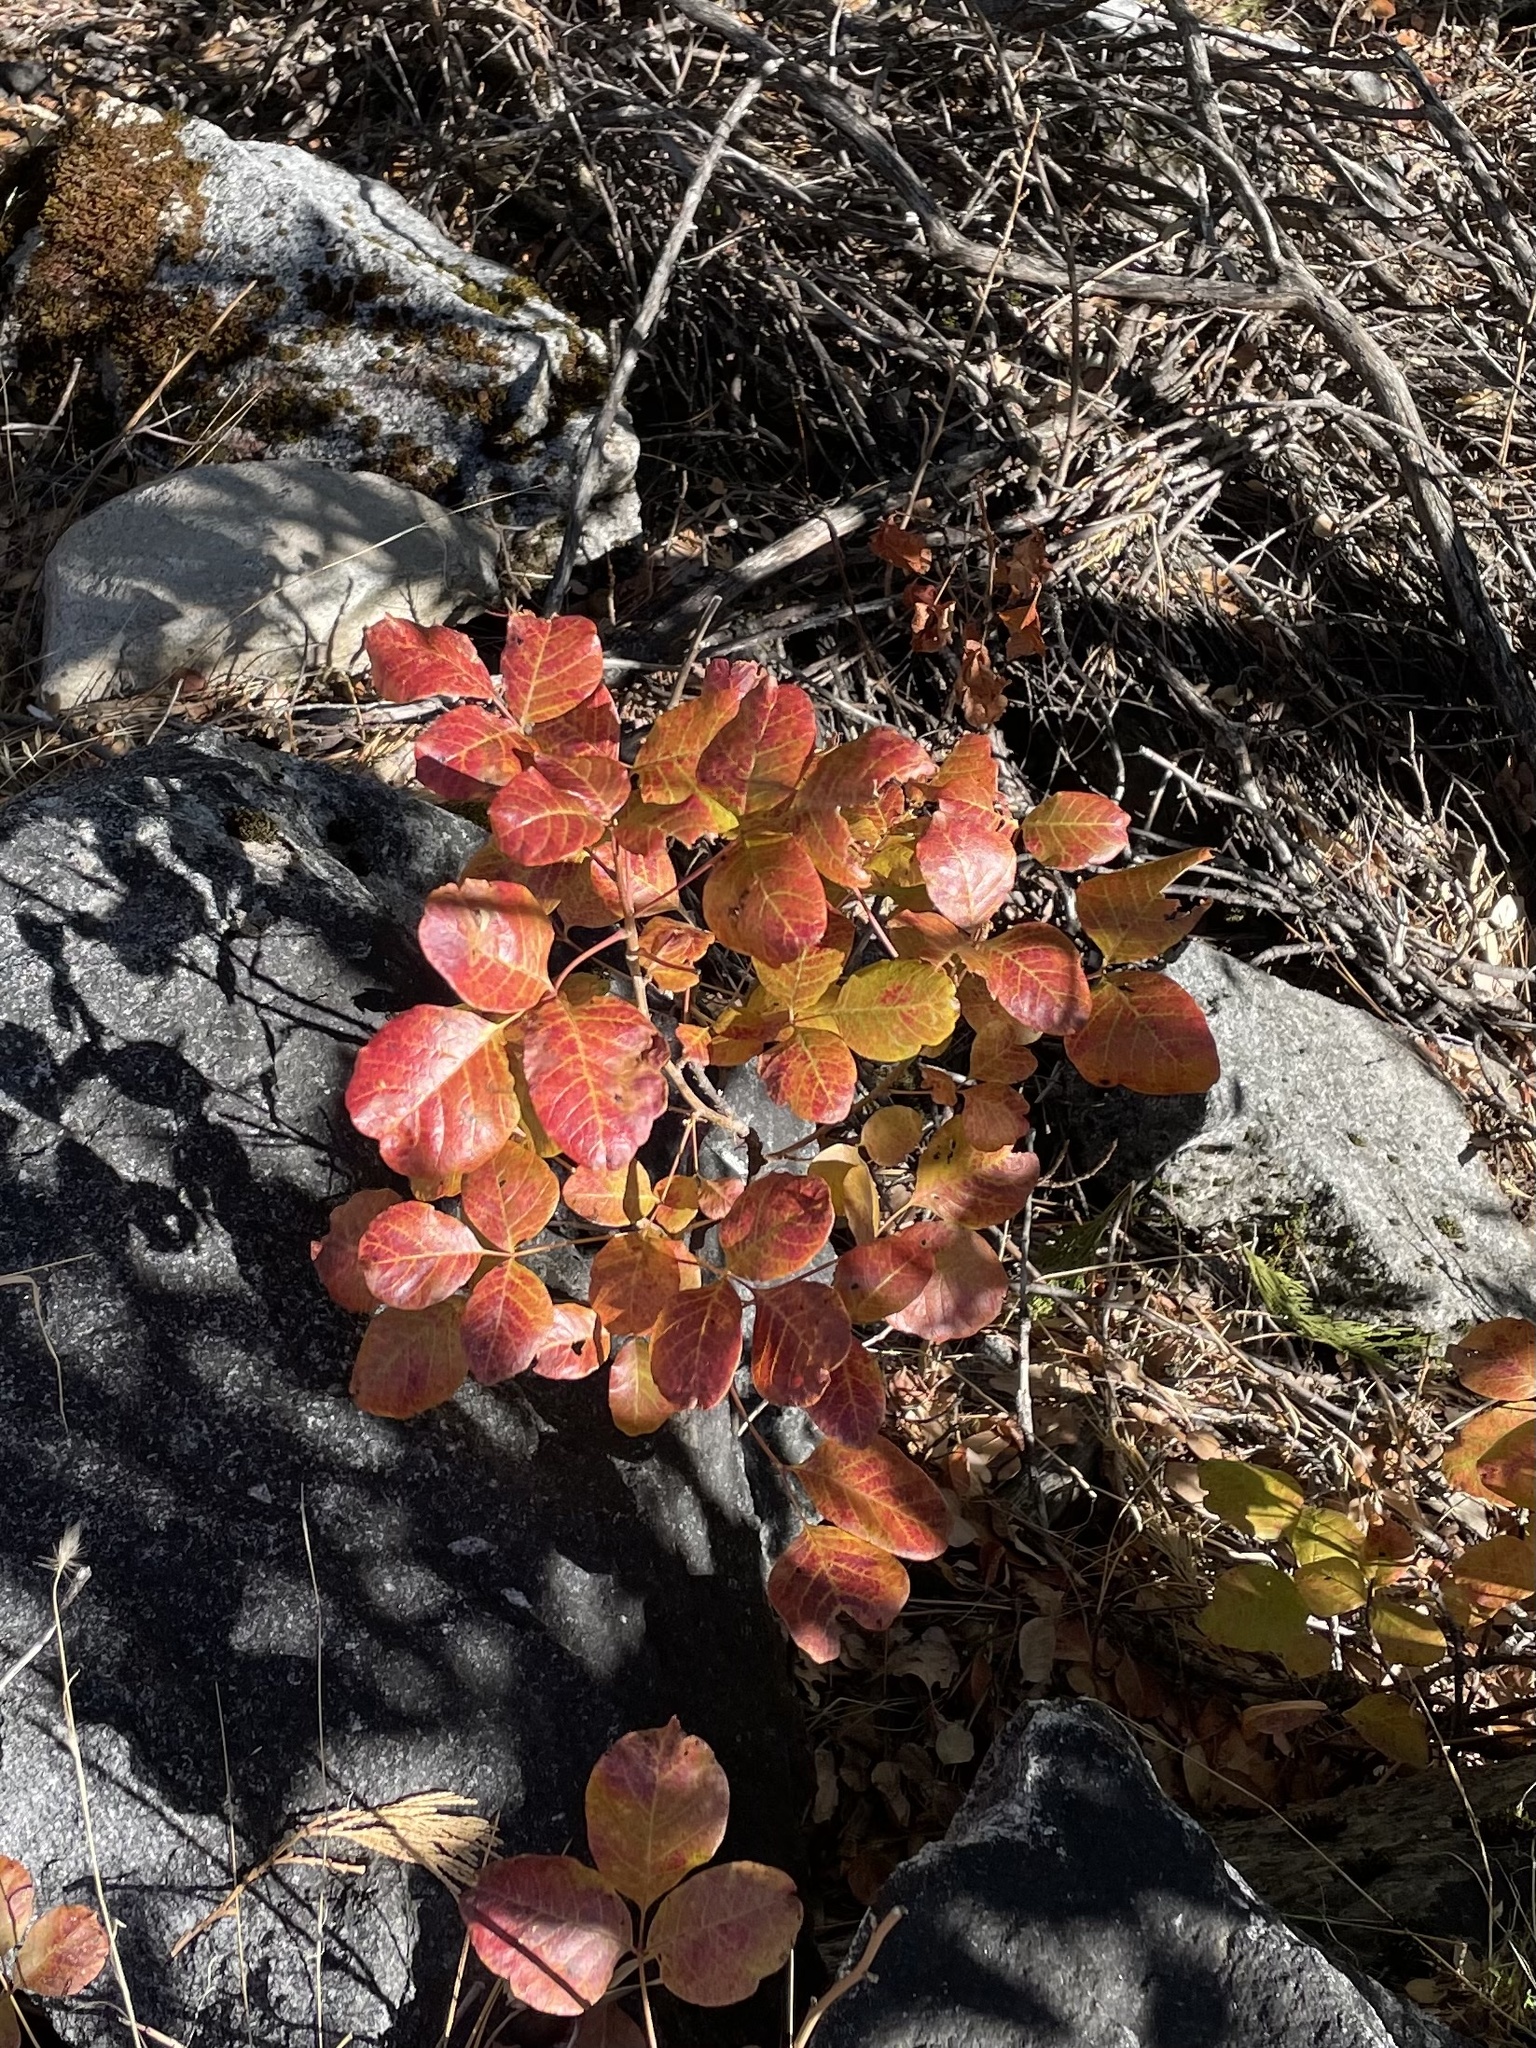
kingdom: Plantae
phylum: Tracheophyta
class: Magnoliopsida
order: Sapindales
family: Anacardiaceae
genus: Toxicodendron
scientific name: Toxicodendron diversilobum
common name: Pacific poison-oak
